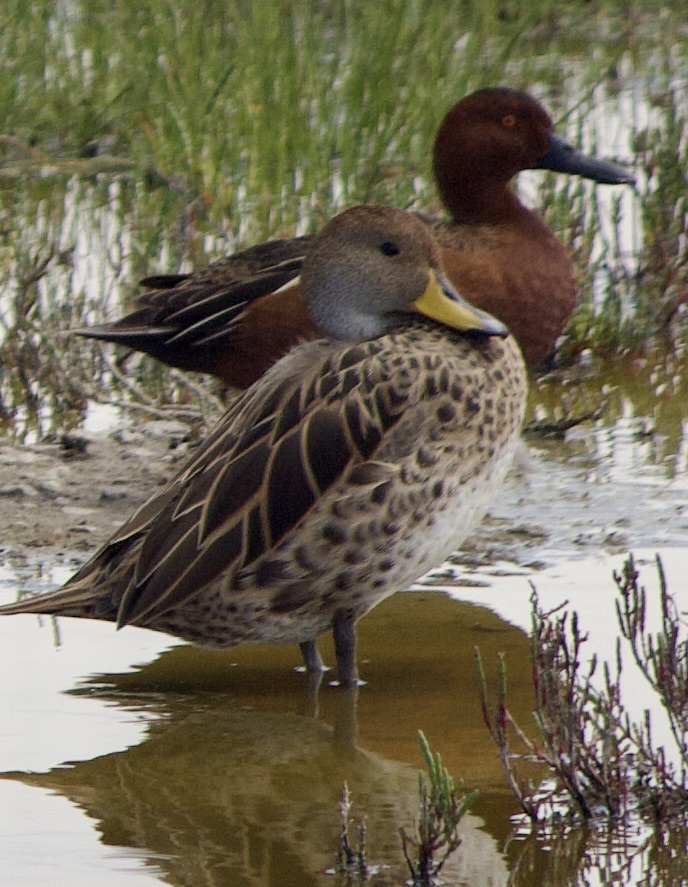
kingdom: Animalia
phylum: Chordata
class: Aves
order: Anseriformes
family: Anatidae
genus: Spatula
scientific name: Spatula cyanoptera
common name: Cinnamon teal
